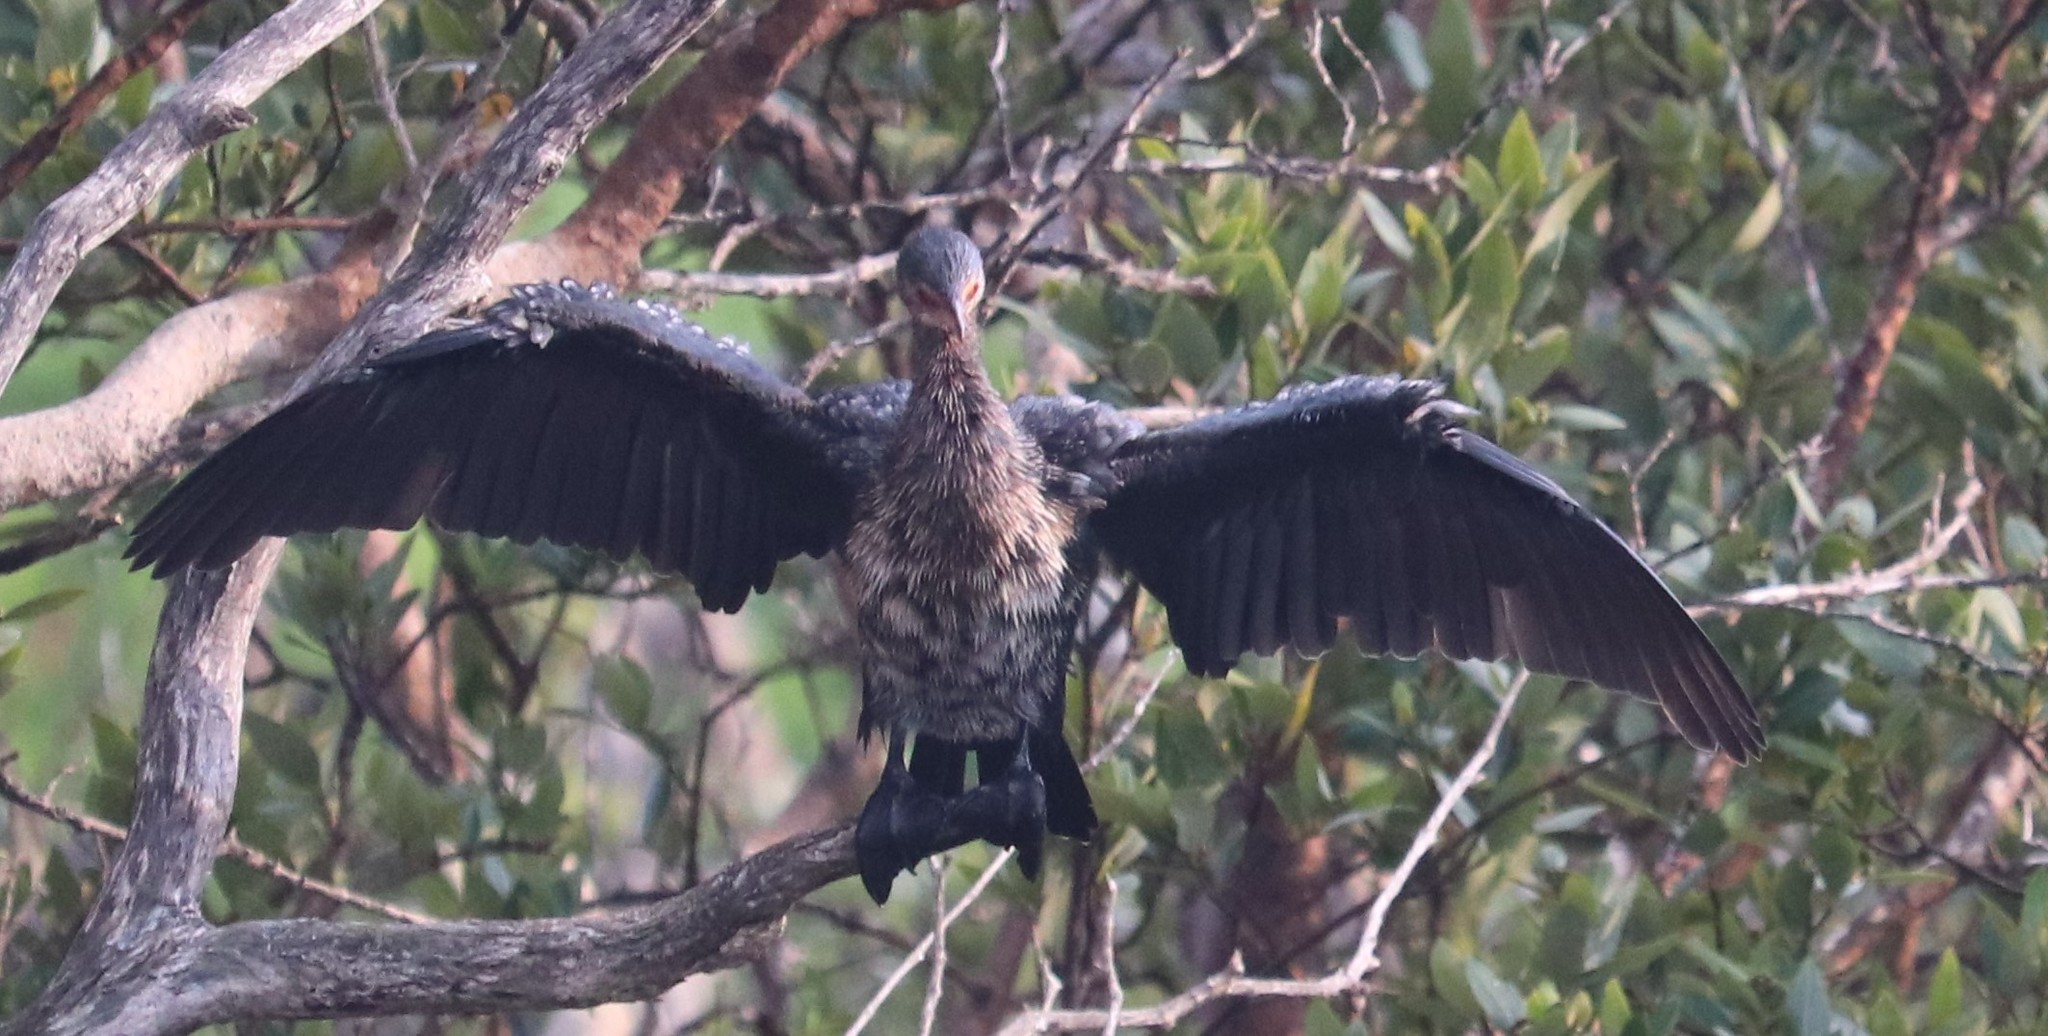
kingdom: Animalia
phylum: Chordata
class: Aves
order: Suliformes
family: Phalacrocoracidae
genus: Microcarbo
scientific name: Microcarbo africanus
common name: Long-tailed cormorant
